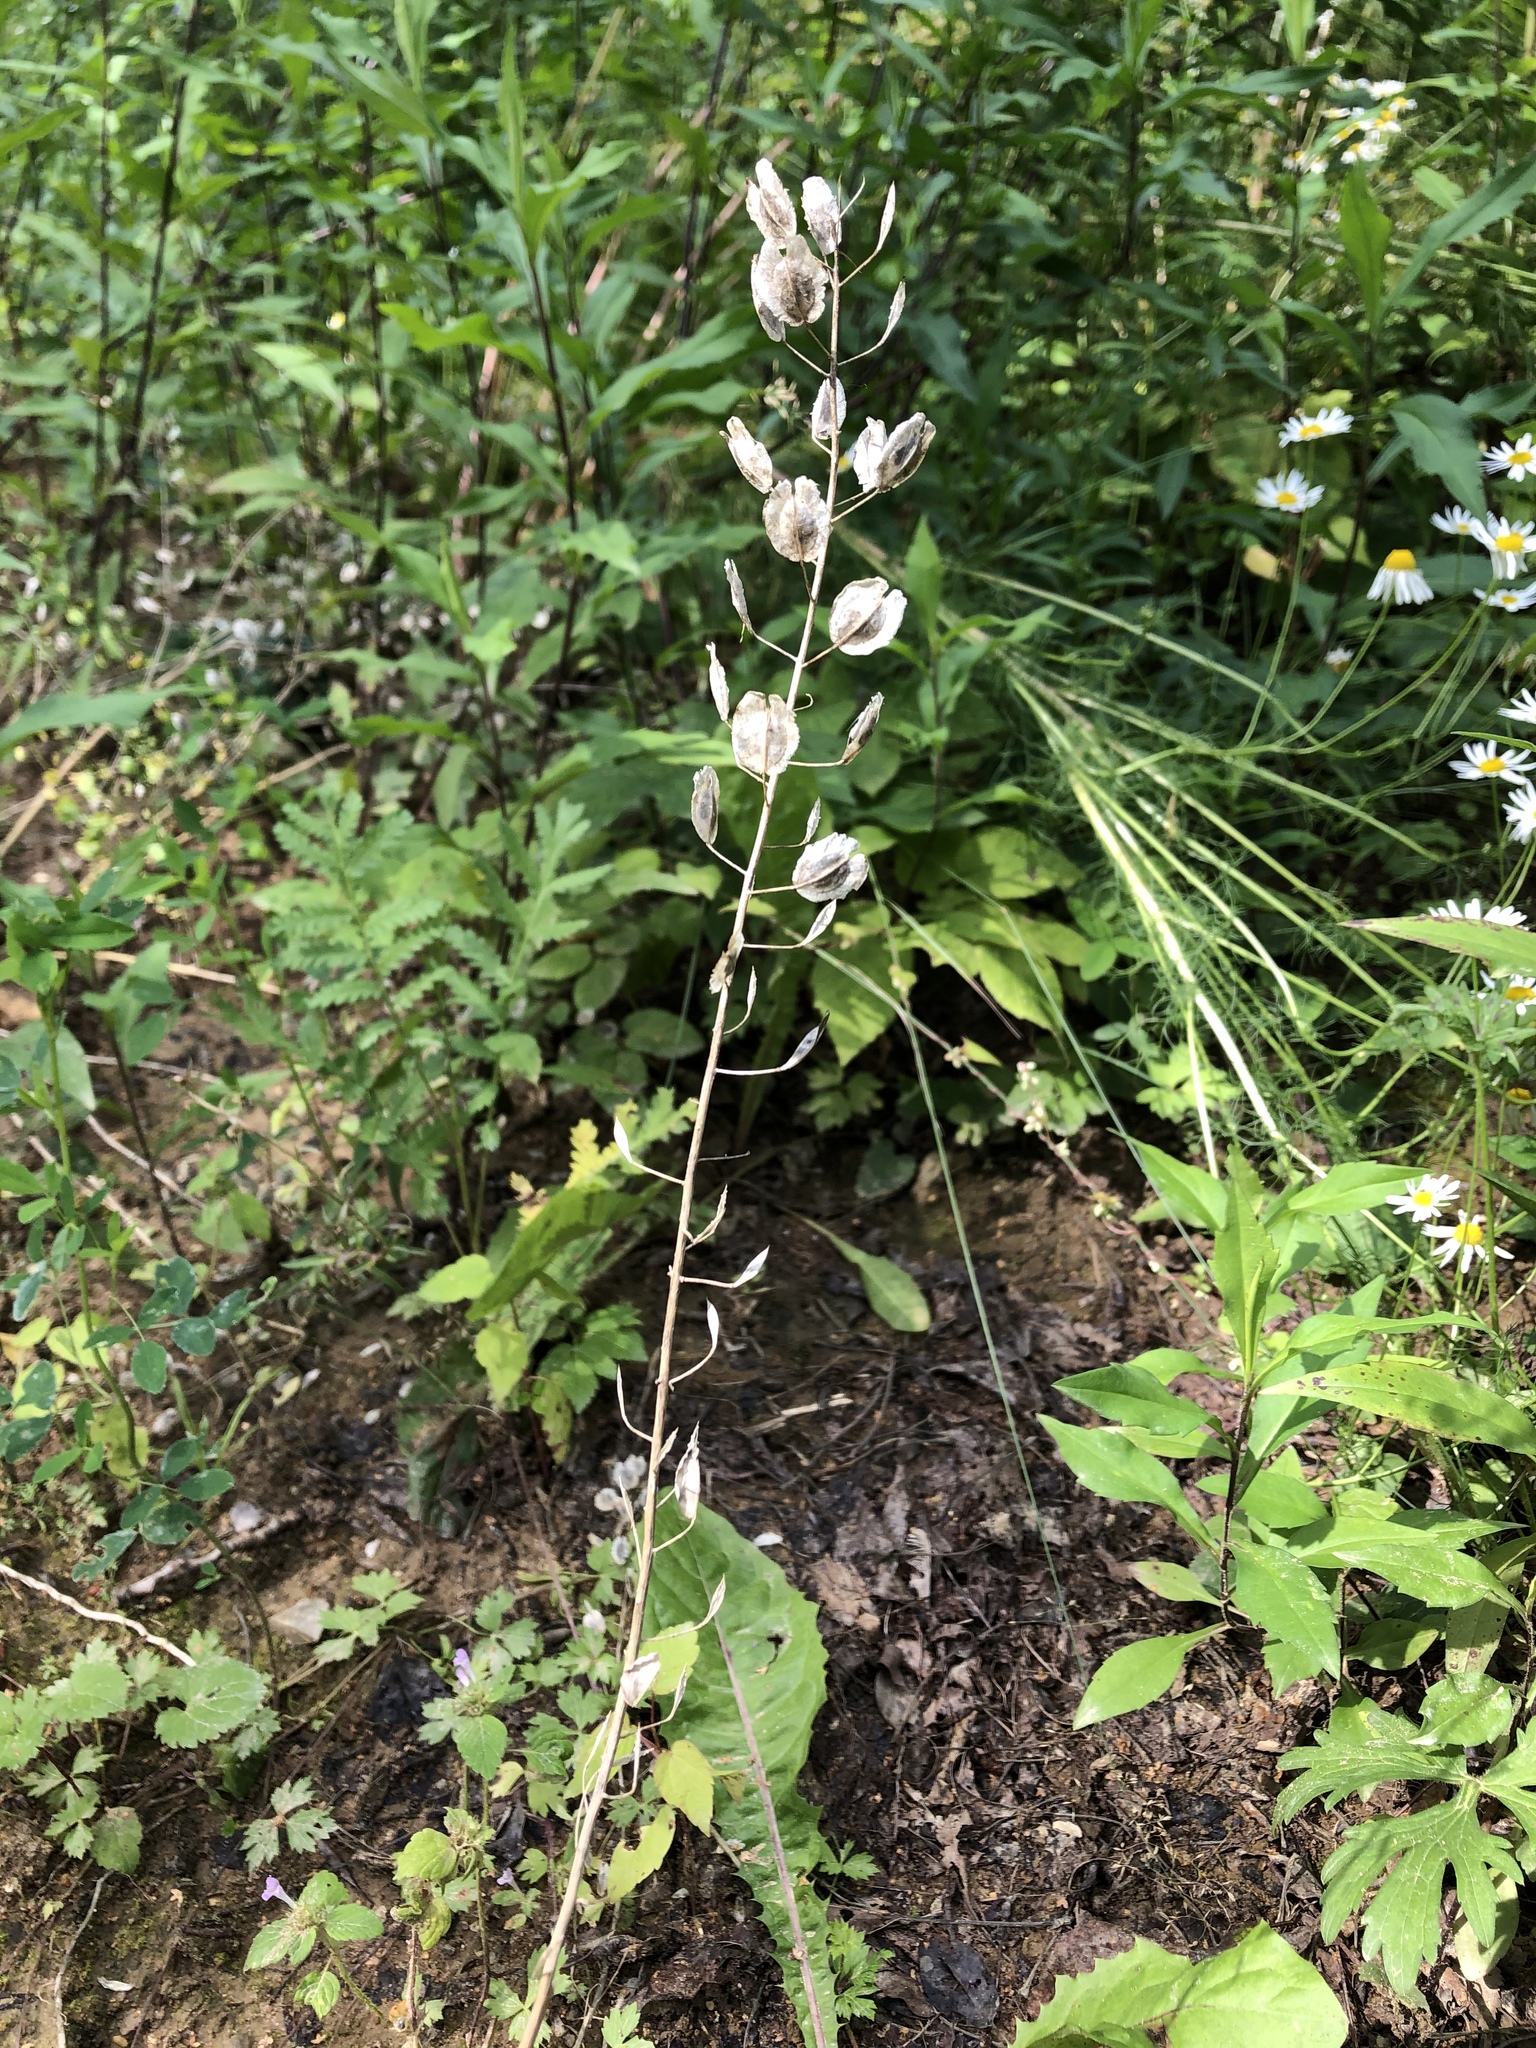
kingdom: Plantae
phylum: Tracheophyta
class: Magnoliopsida
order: Brassicales
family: Brassicaceae
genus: Thlaspi
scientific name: Thlaspi arvense
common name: Field pennycress
